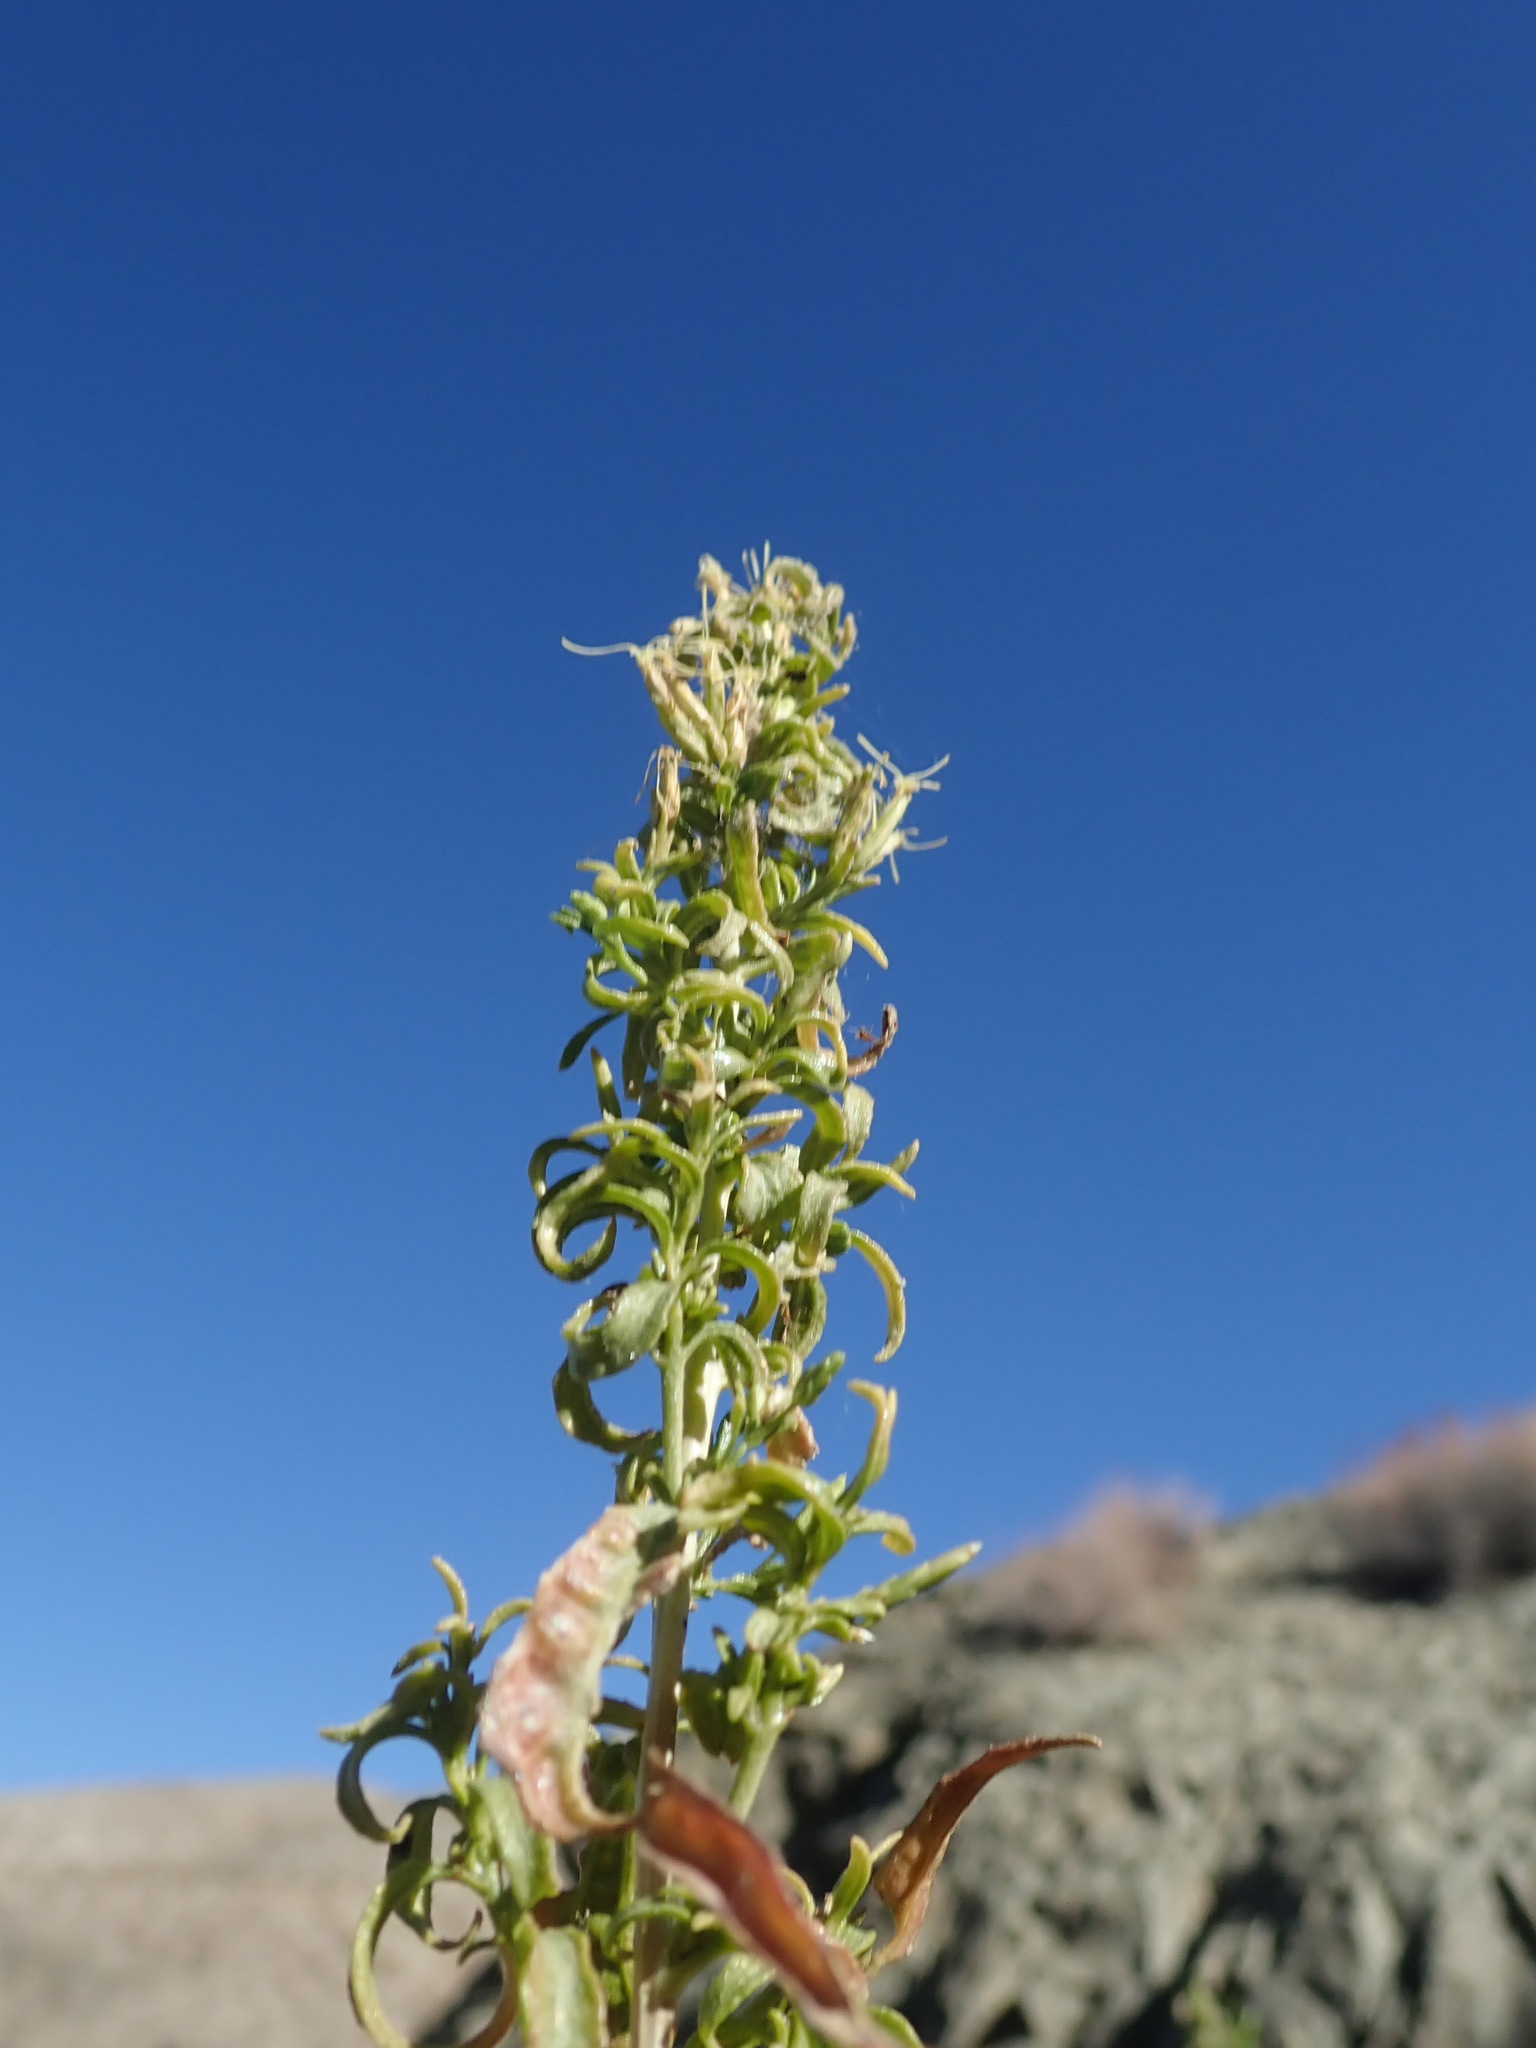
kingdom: Plantae
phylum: Tracheophyta
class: Magnoliopsida
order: Asterales
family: Asteraceae
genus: Brickellia
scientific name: Brickellia longifolia
